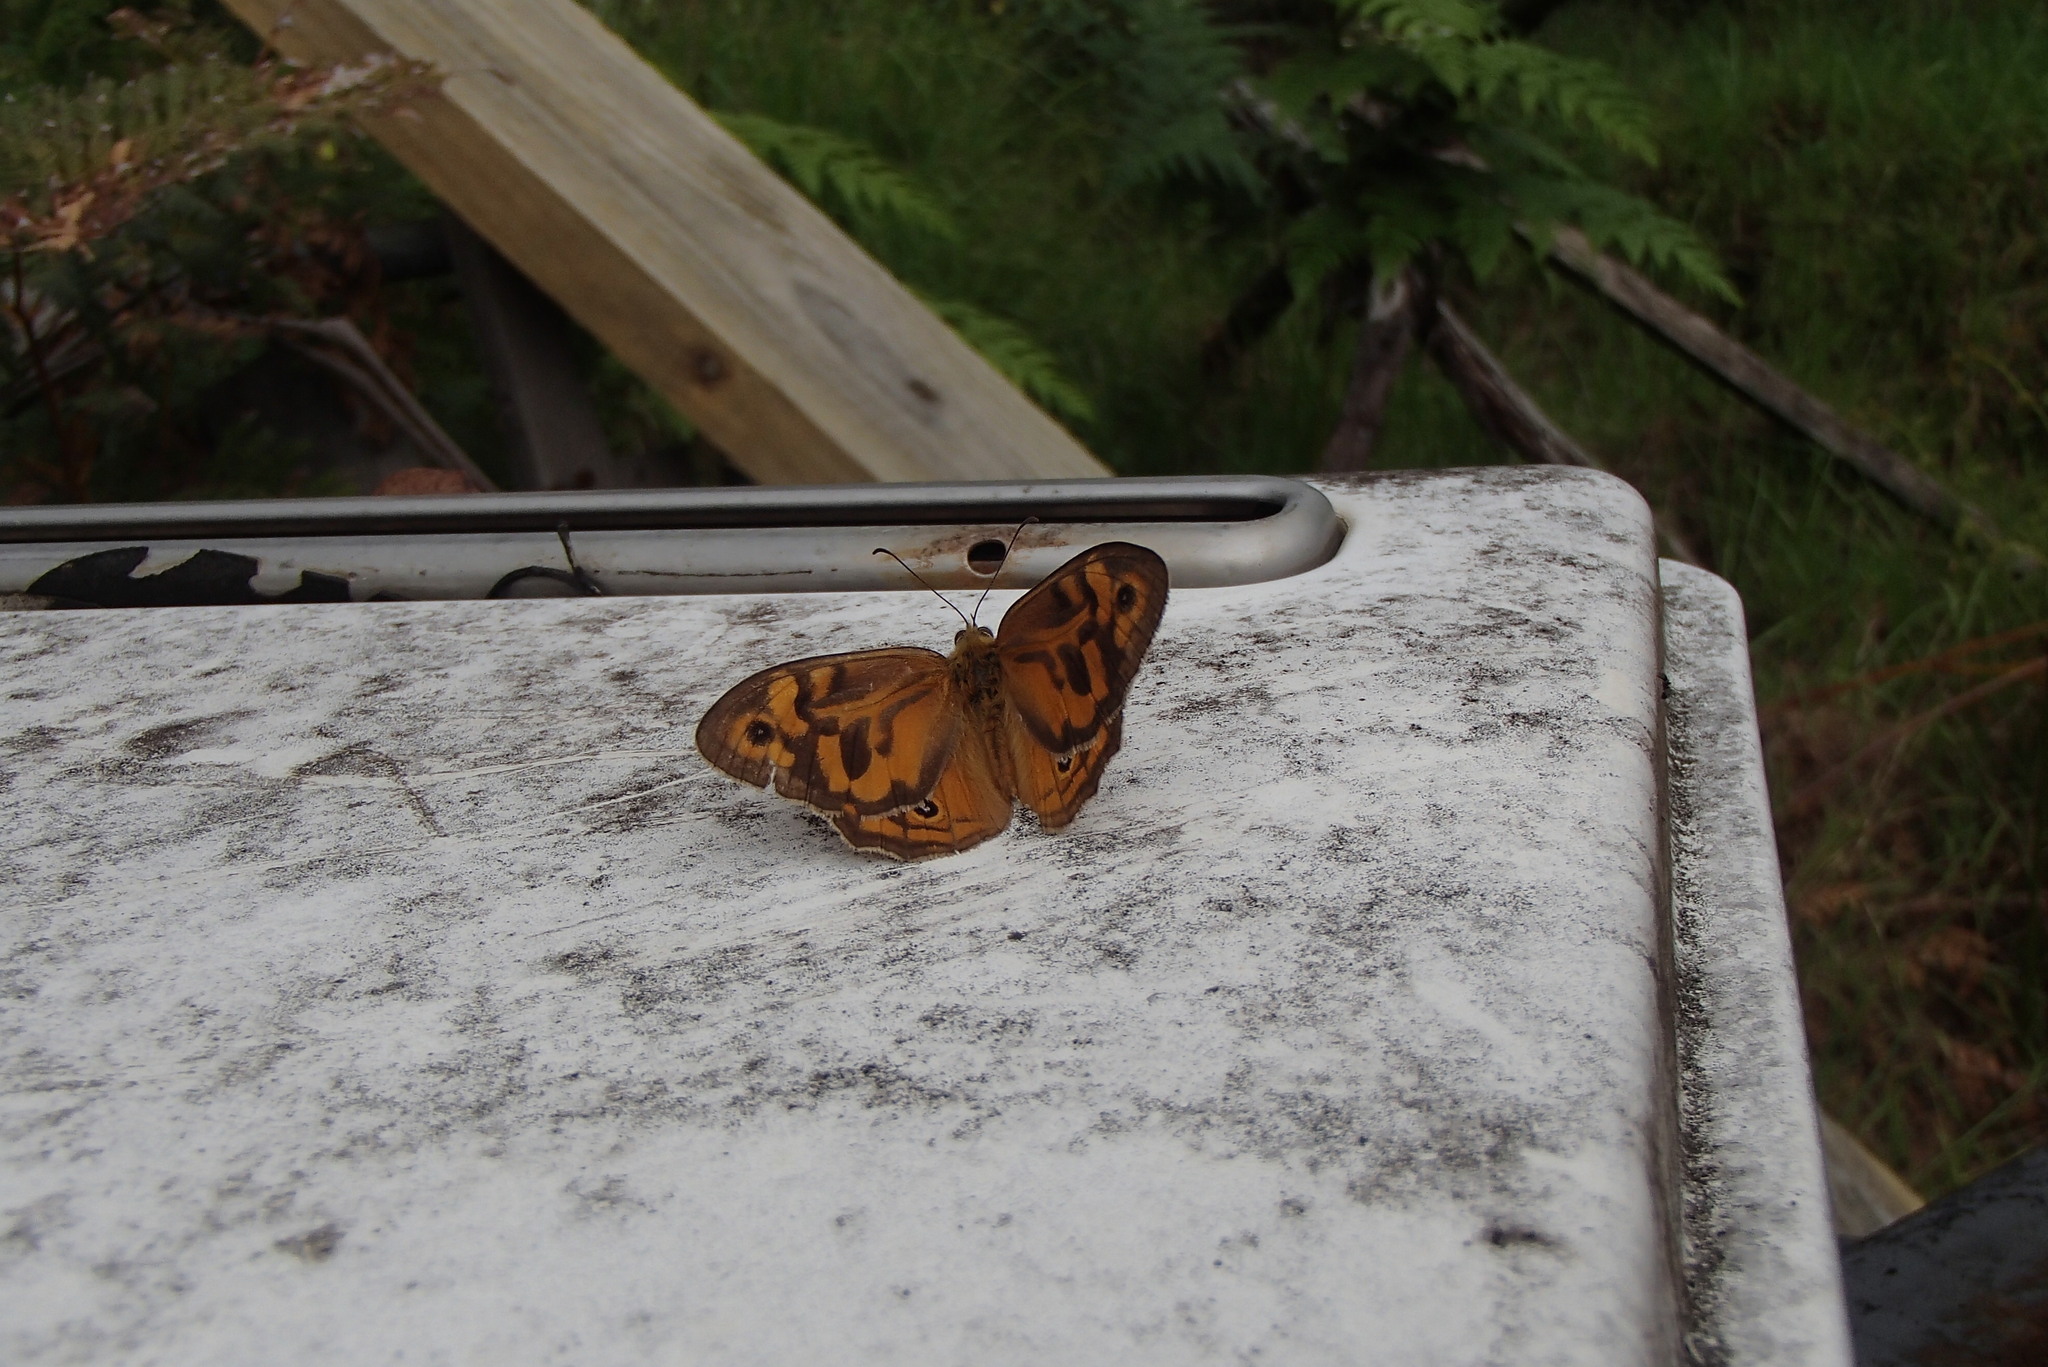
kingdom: Animalia
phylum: Arthropoda
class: Insecta
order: Lepidoptera
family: Nymphalidae
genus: Heteronympha
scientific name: Heteronympha merope
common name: Common brown
